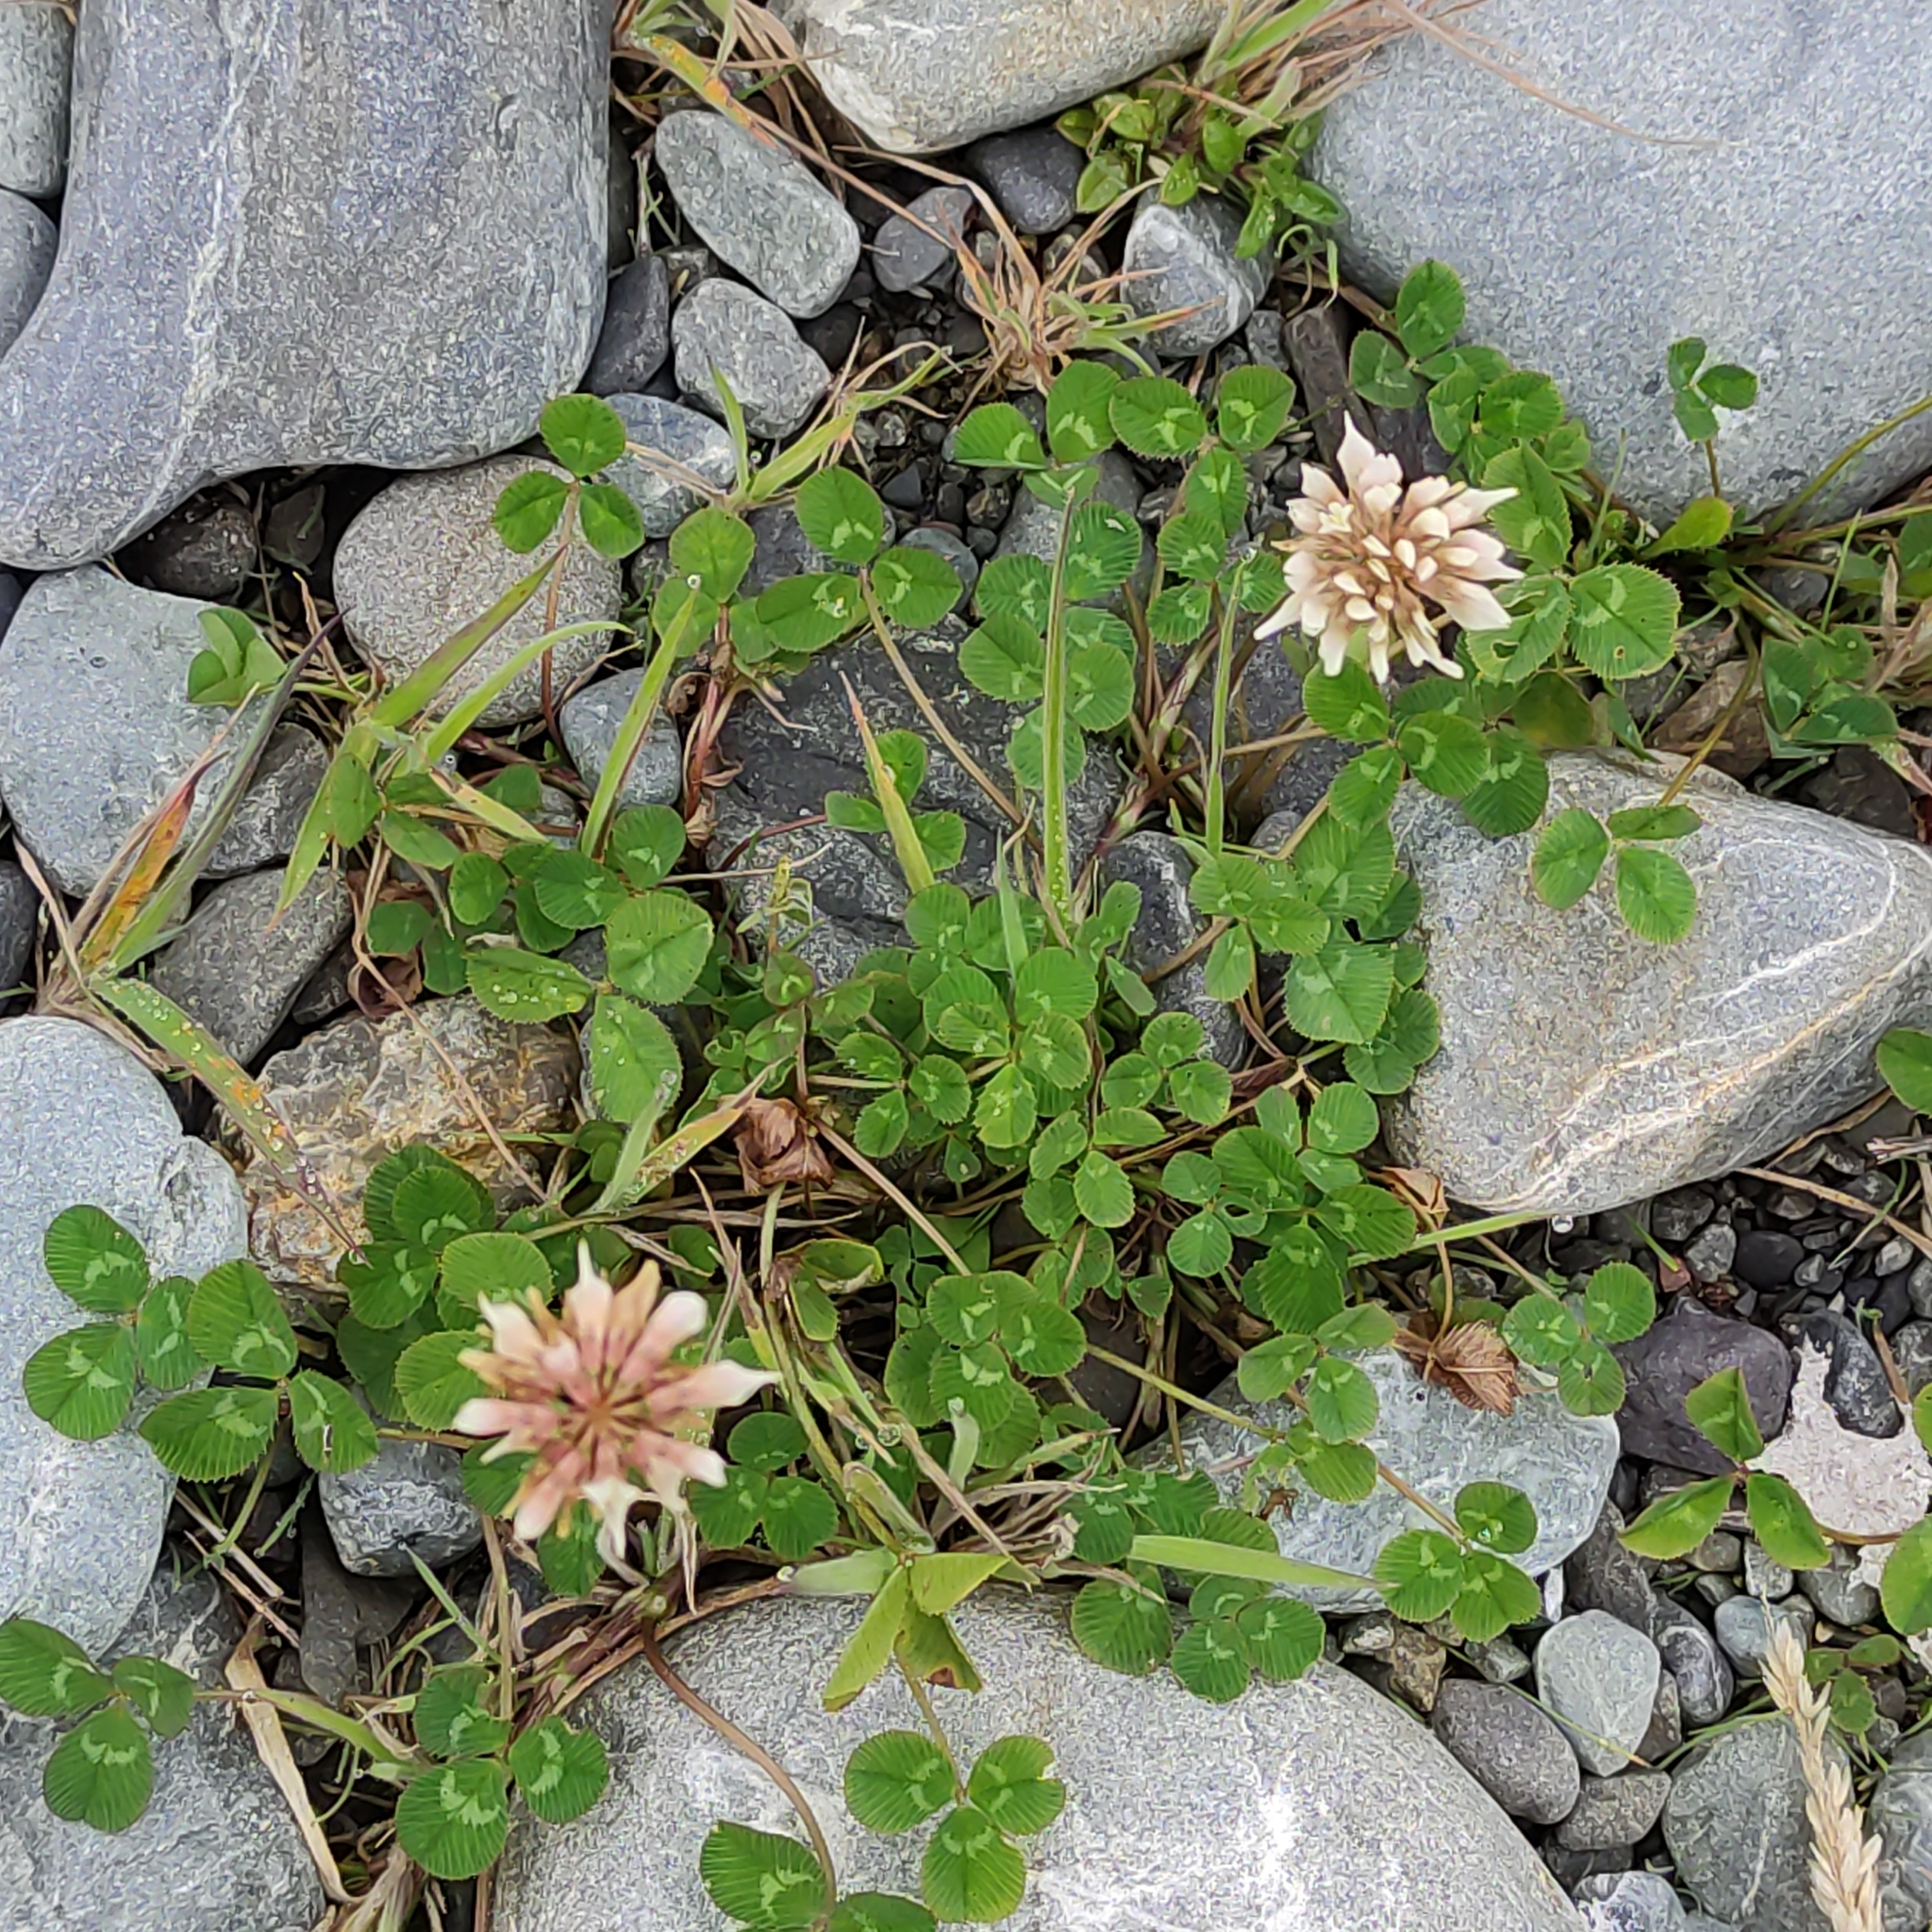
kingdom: Plantae
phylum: Tracheophyta
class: Magnoliopsida
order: Fabales
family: Fabaceae
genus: Trifolium
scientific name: Trifolium repens
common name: White clover
